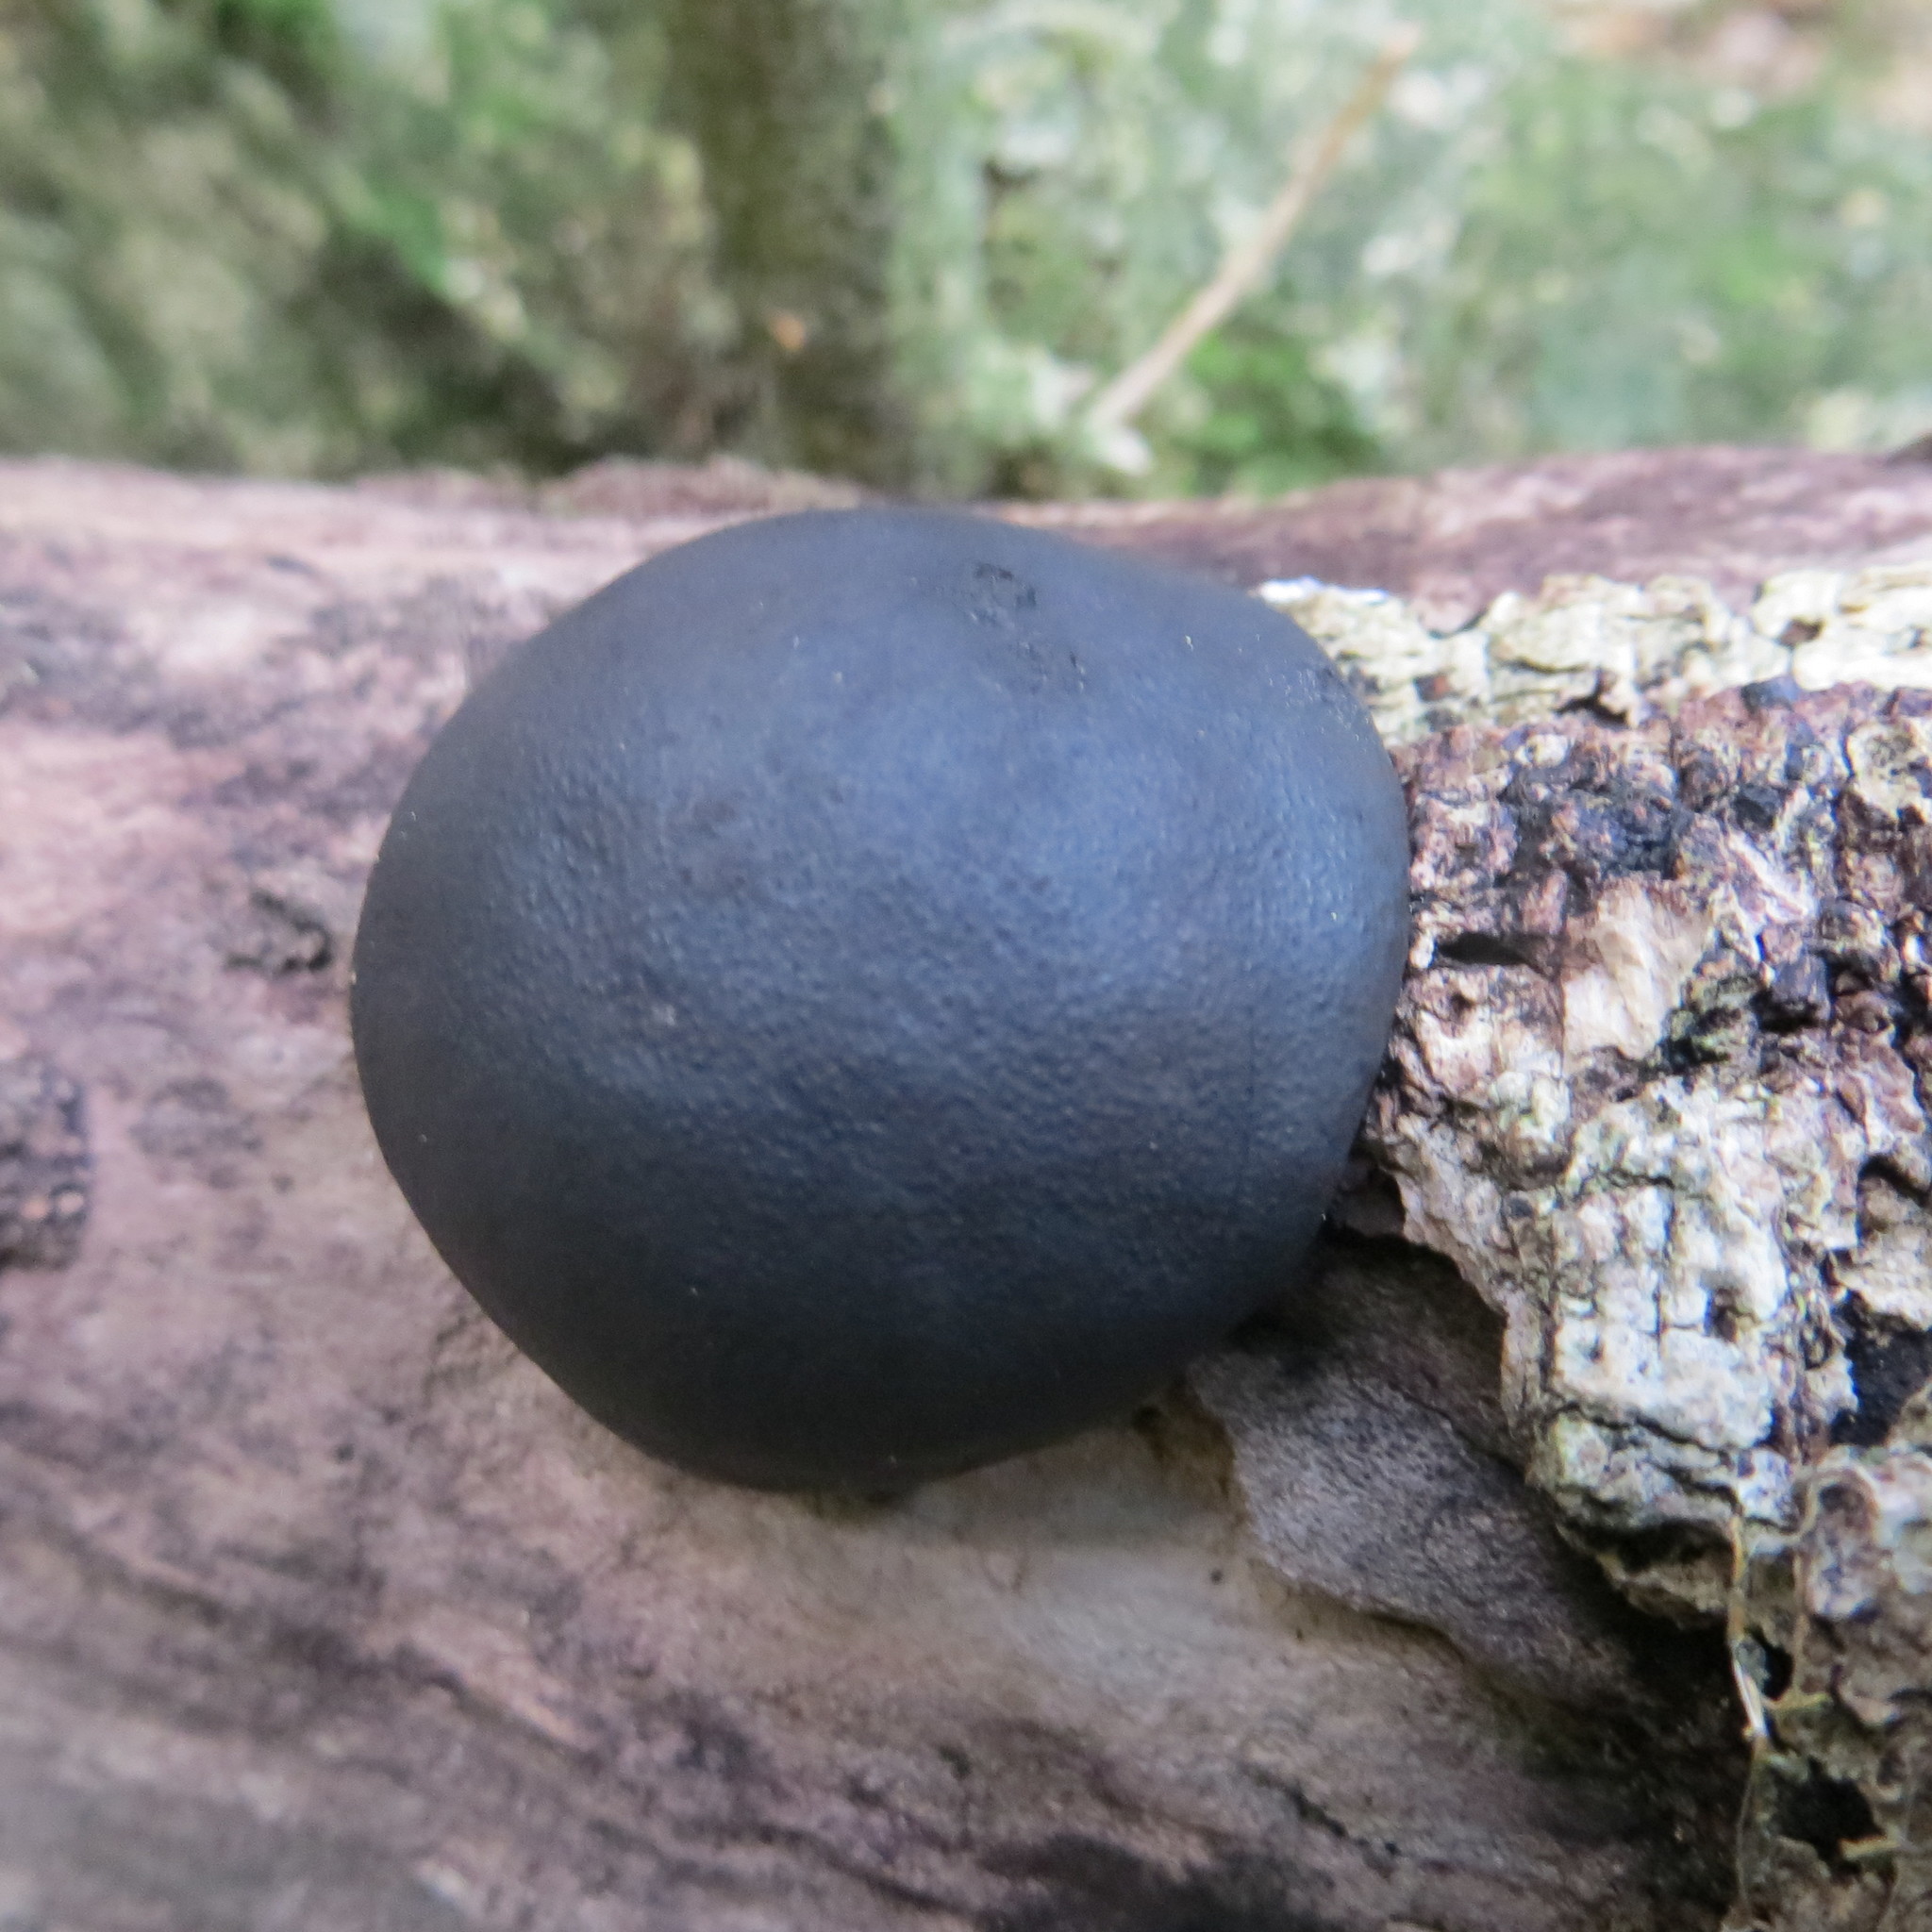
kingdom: Fungi
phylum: Ascomycota
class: Sordariomycetes
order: Xylariales
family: Hypoxylaceae
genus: Daldinia
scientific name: Daldinia
